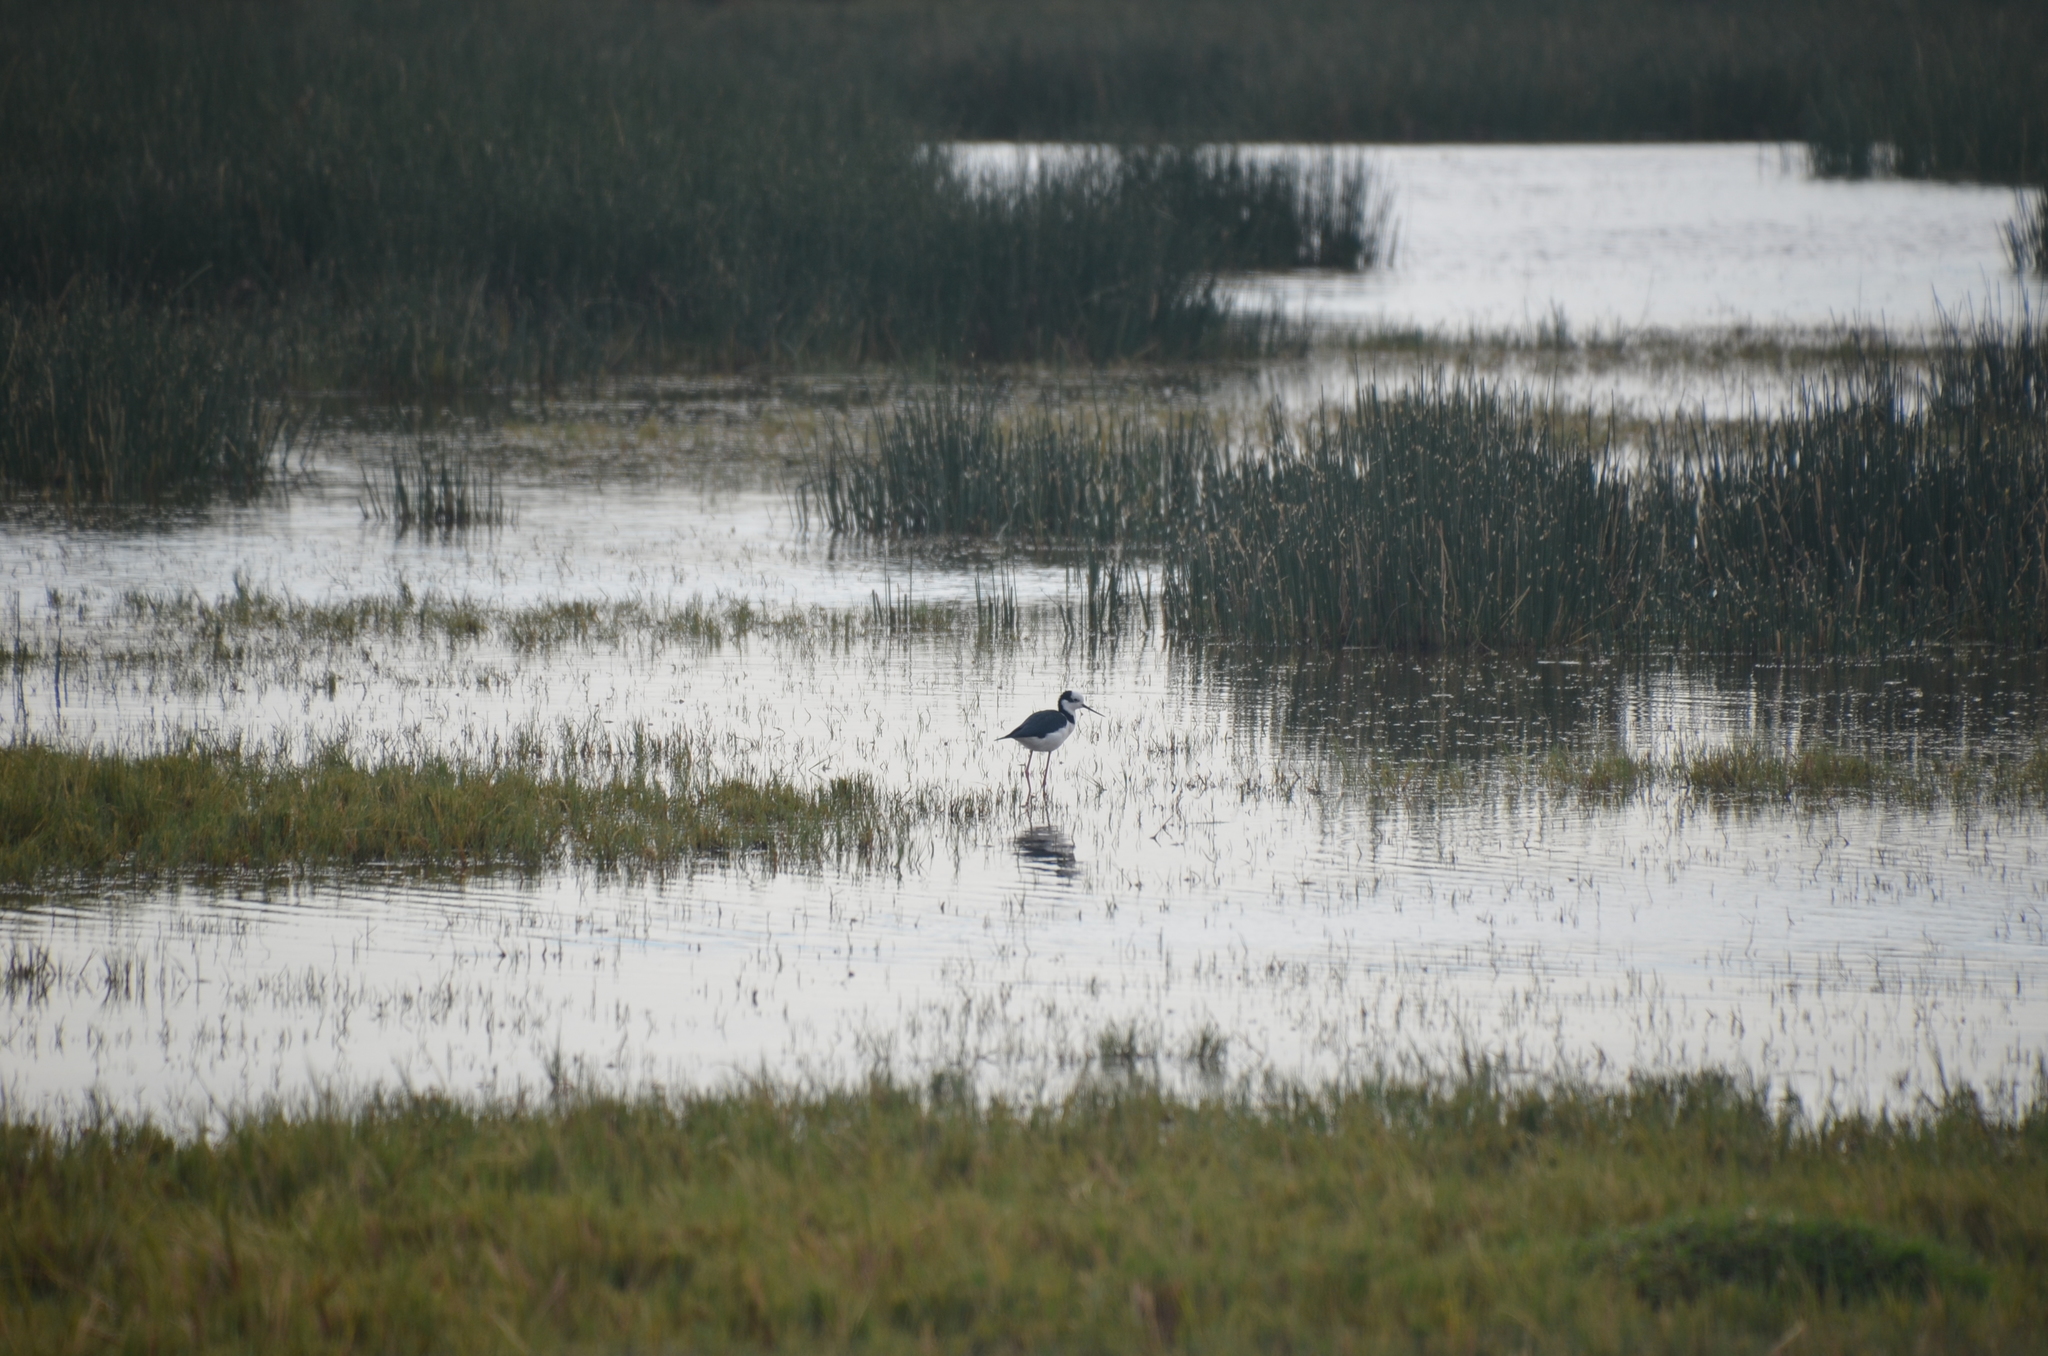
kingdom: Animalia
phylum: Chordata
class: Aves
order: Charadriiformes
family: Recurvirostridae
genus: Himantopus
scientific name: Himantopus mexicanus
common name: Black-necked stilt
